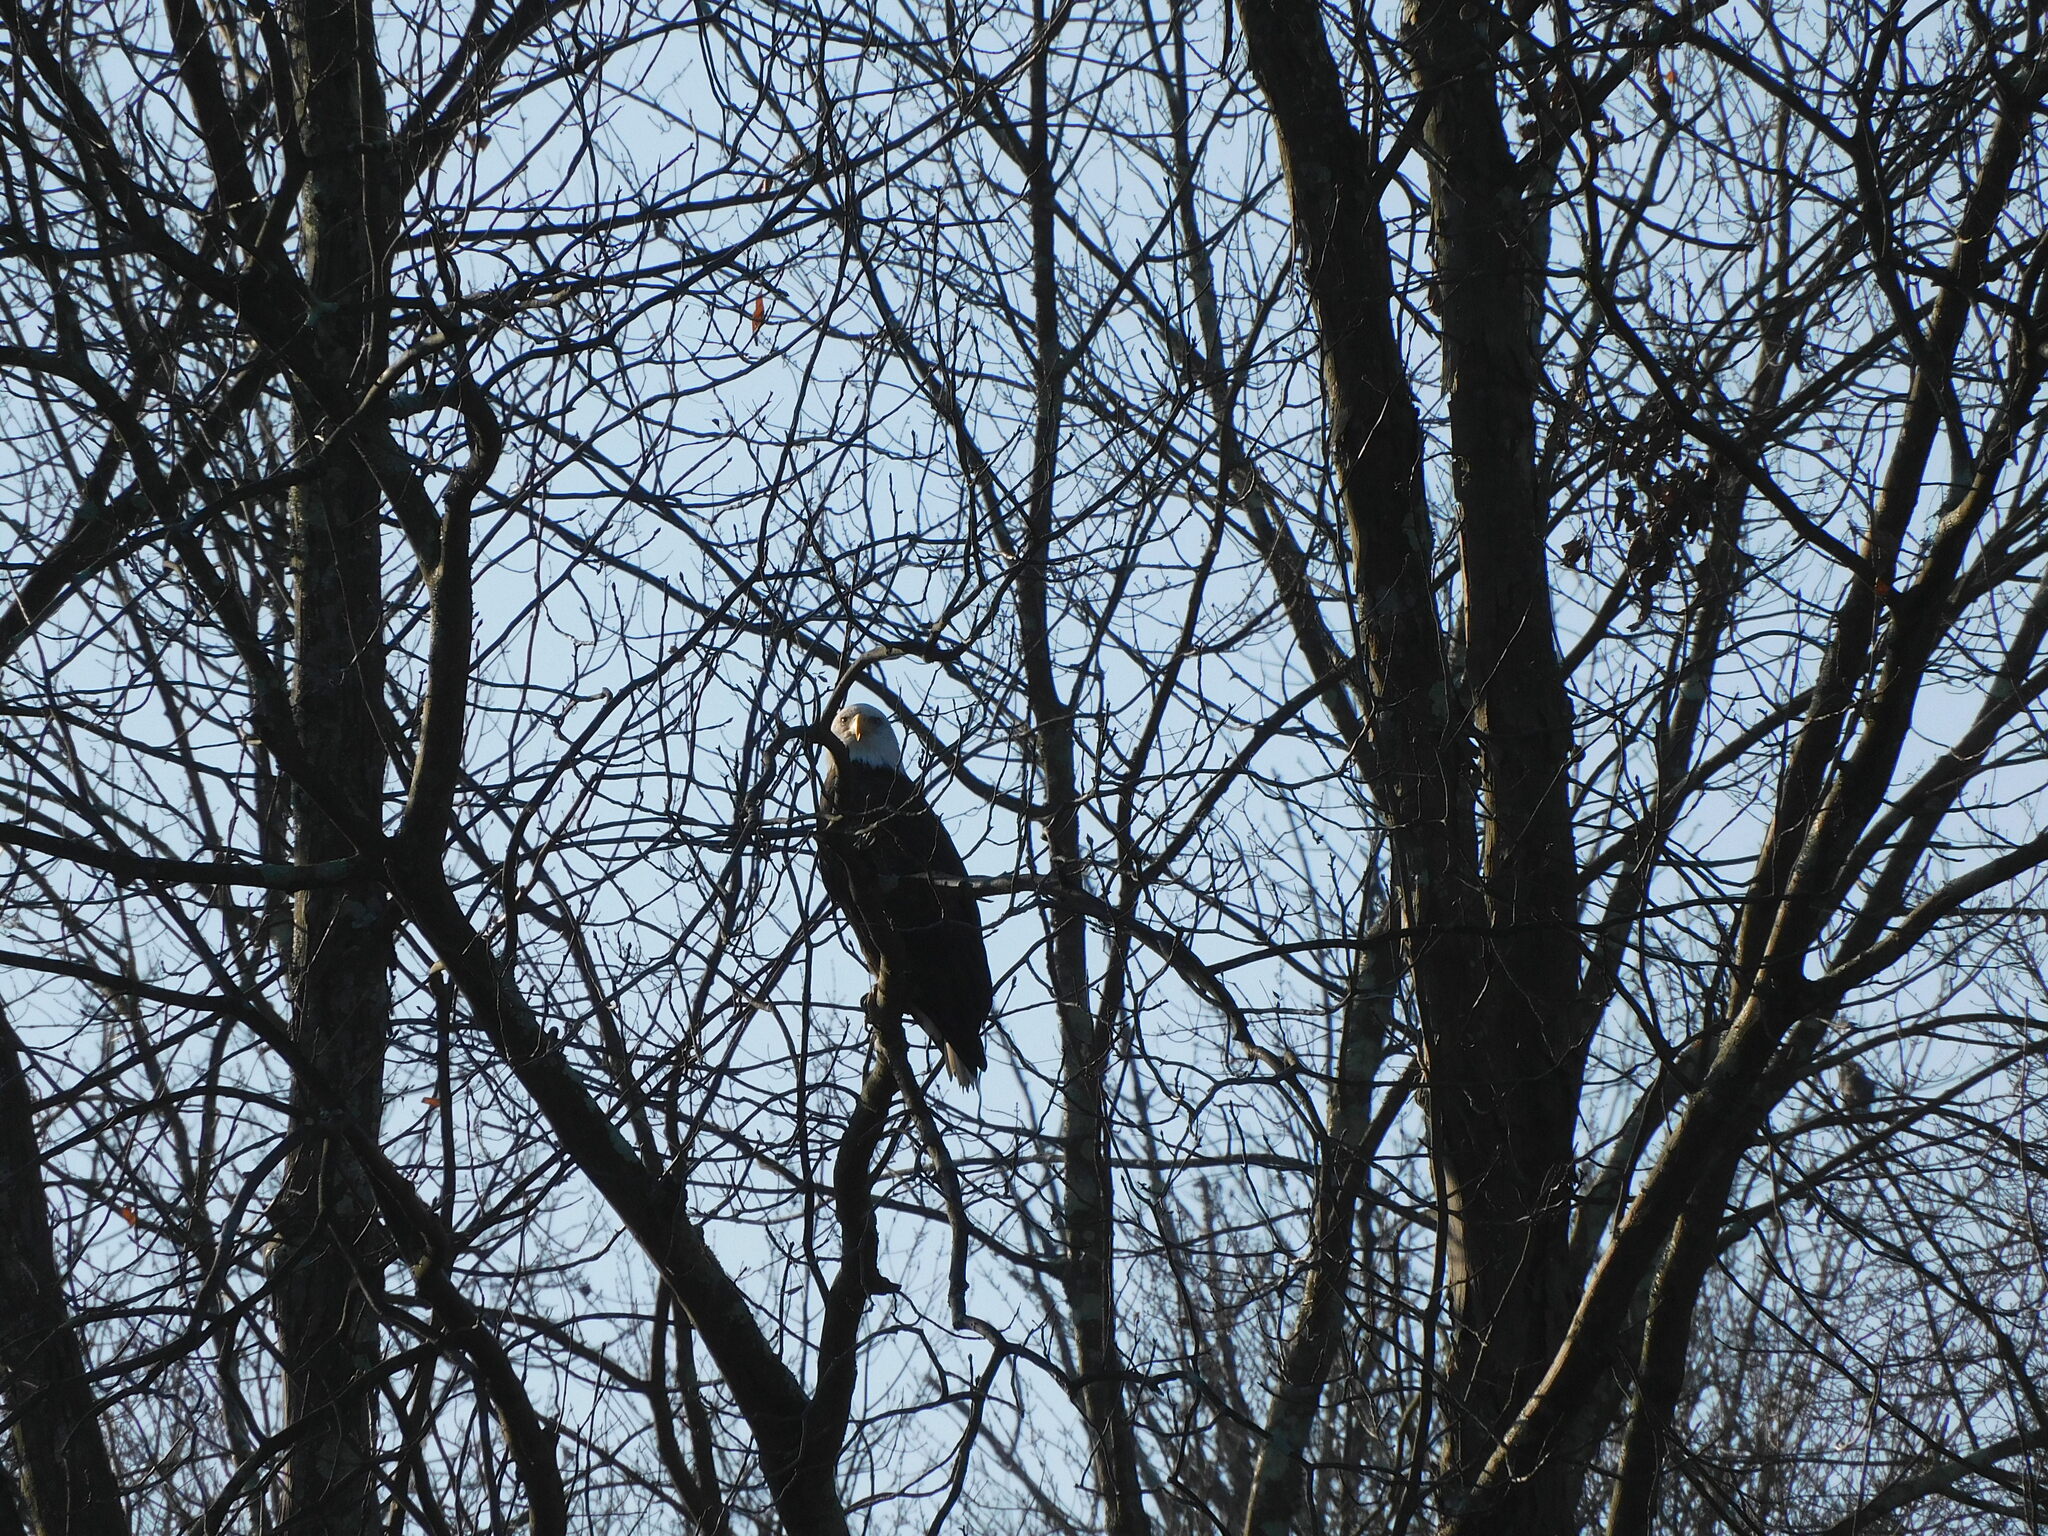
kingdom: Animalia
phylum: Chordata
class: Aves
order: Accipitriformes
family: Accipitridae
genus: Haliaeetus
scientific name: Haliaeetus leucocephalus
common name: Bald eagle
